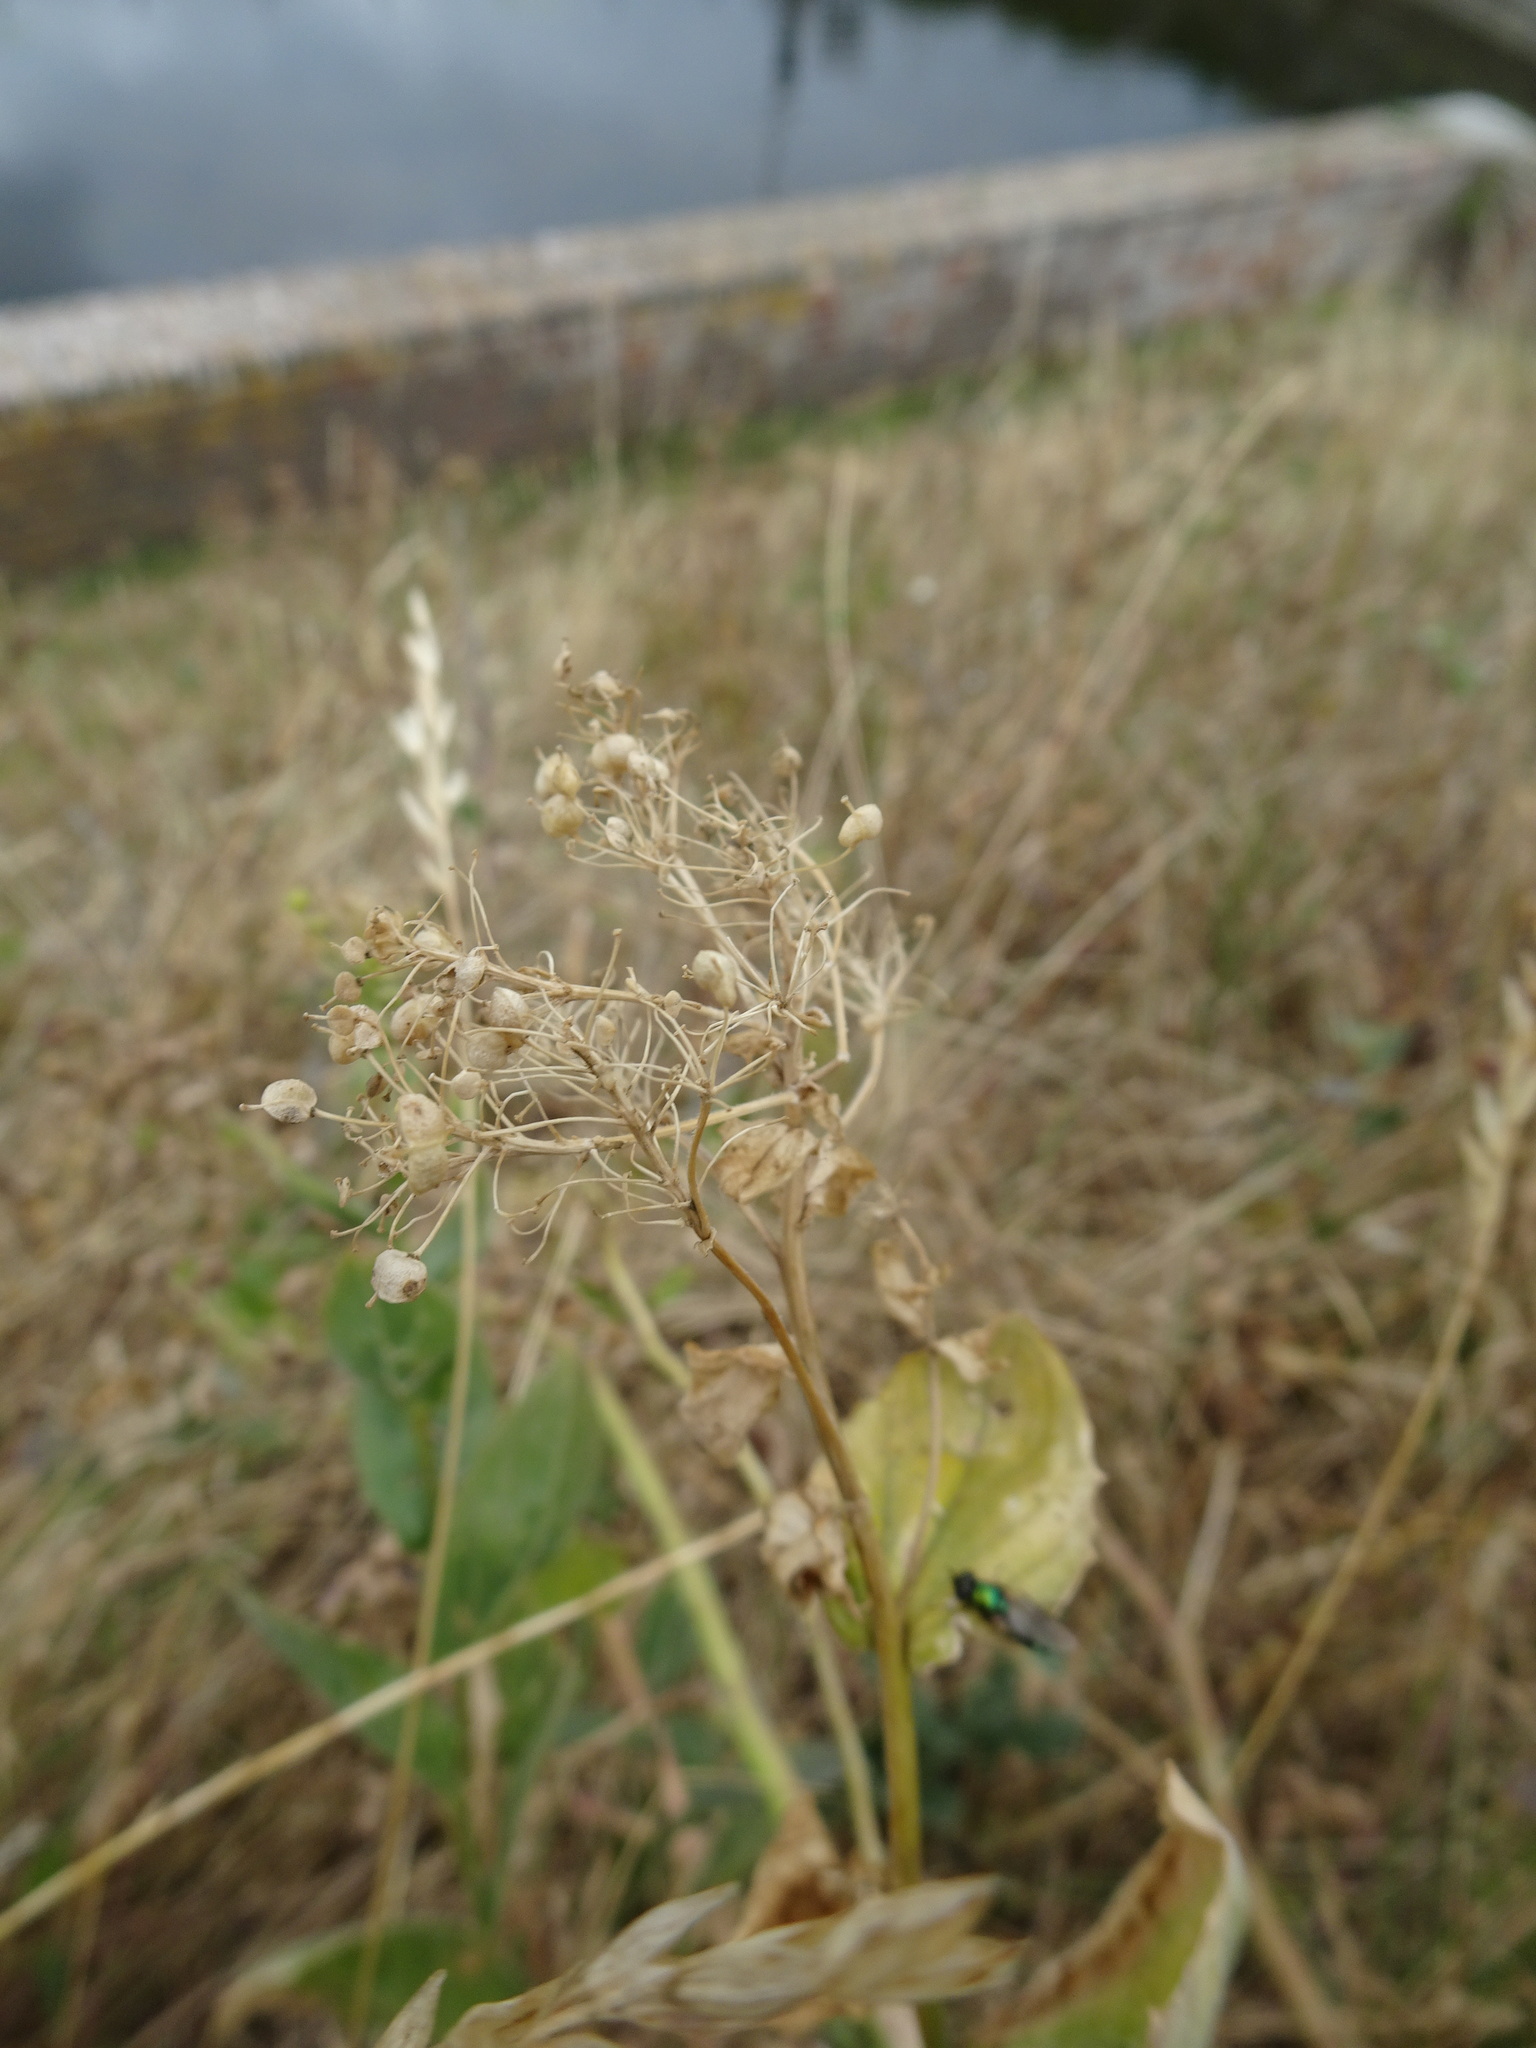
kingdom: Plantae
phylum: Tracheophyta
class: Magnoliopsida
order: Brassicales
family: Brassicaceae
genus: Lepidium
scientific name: Lepidium draba
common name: Hoary cress
